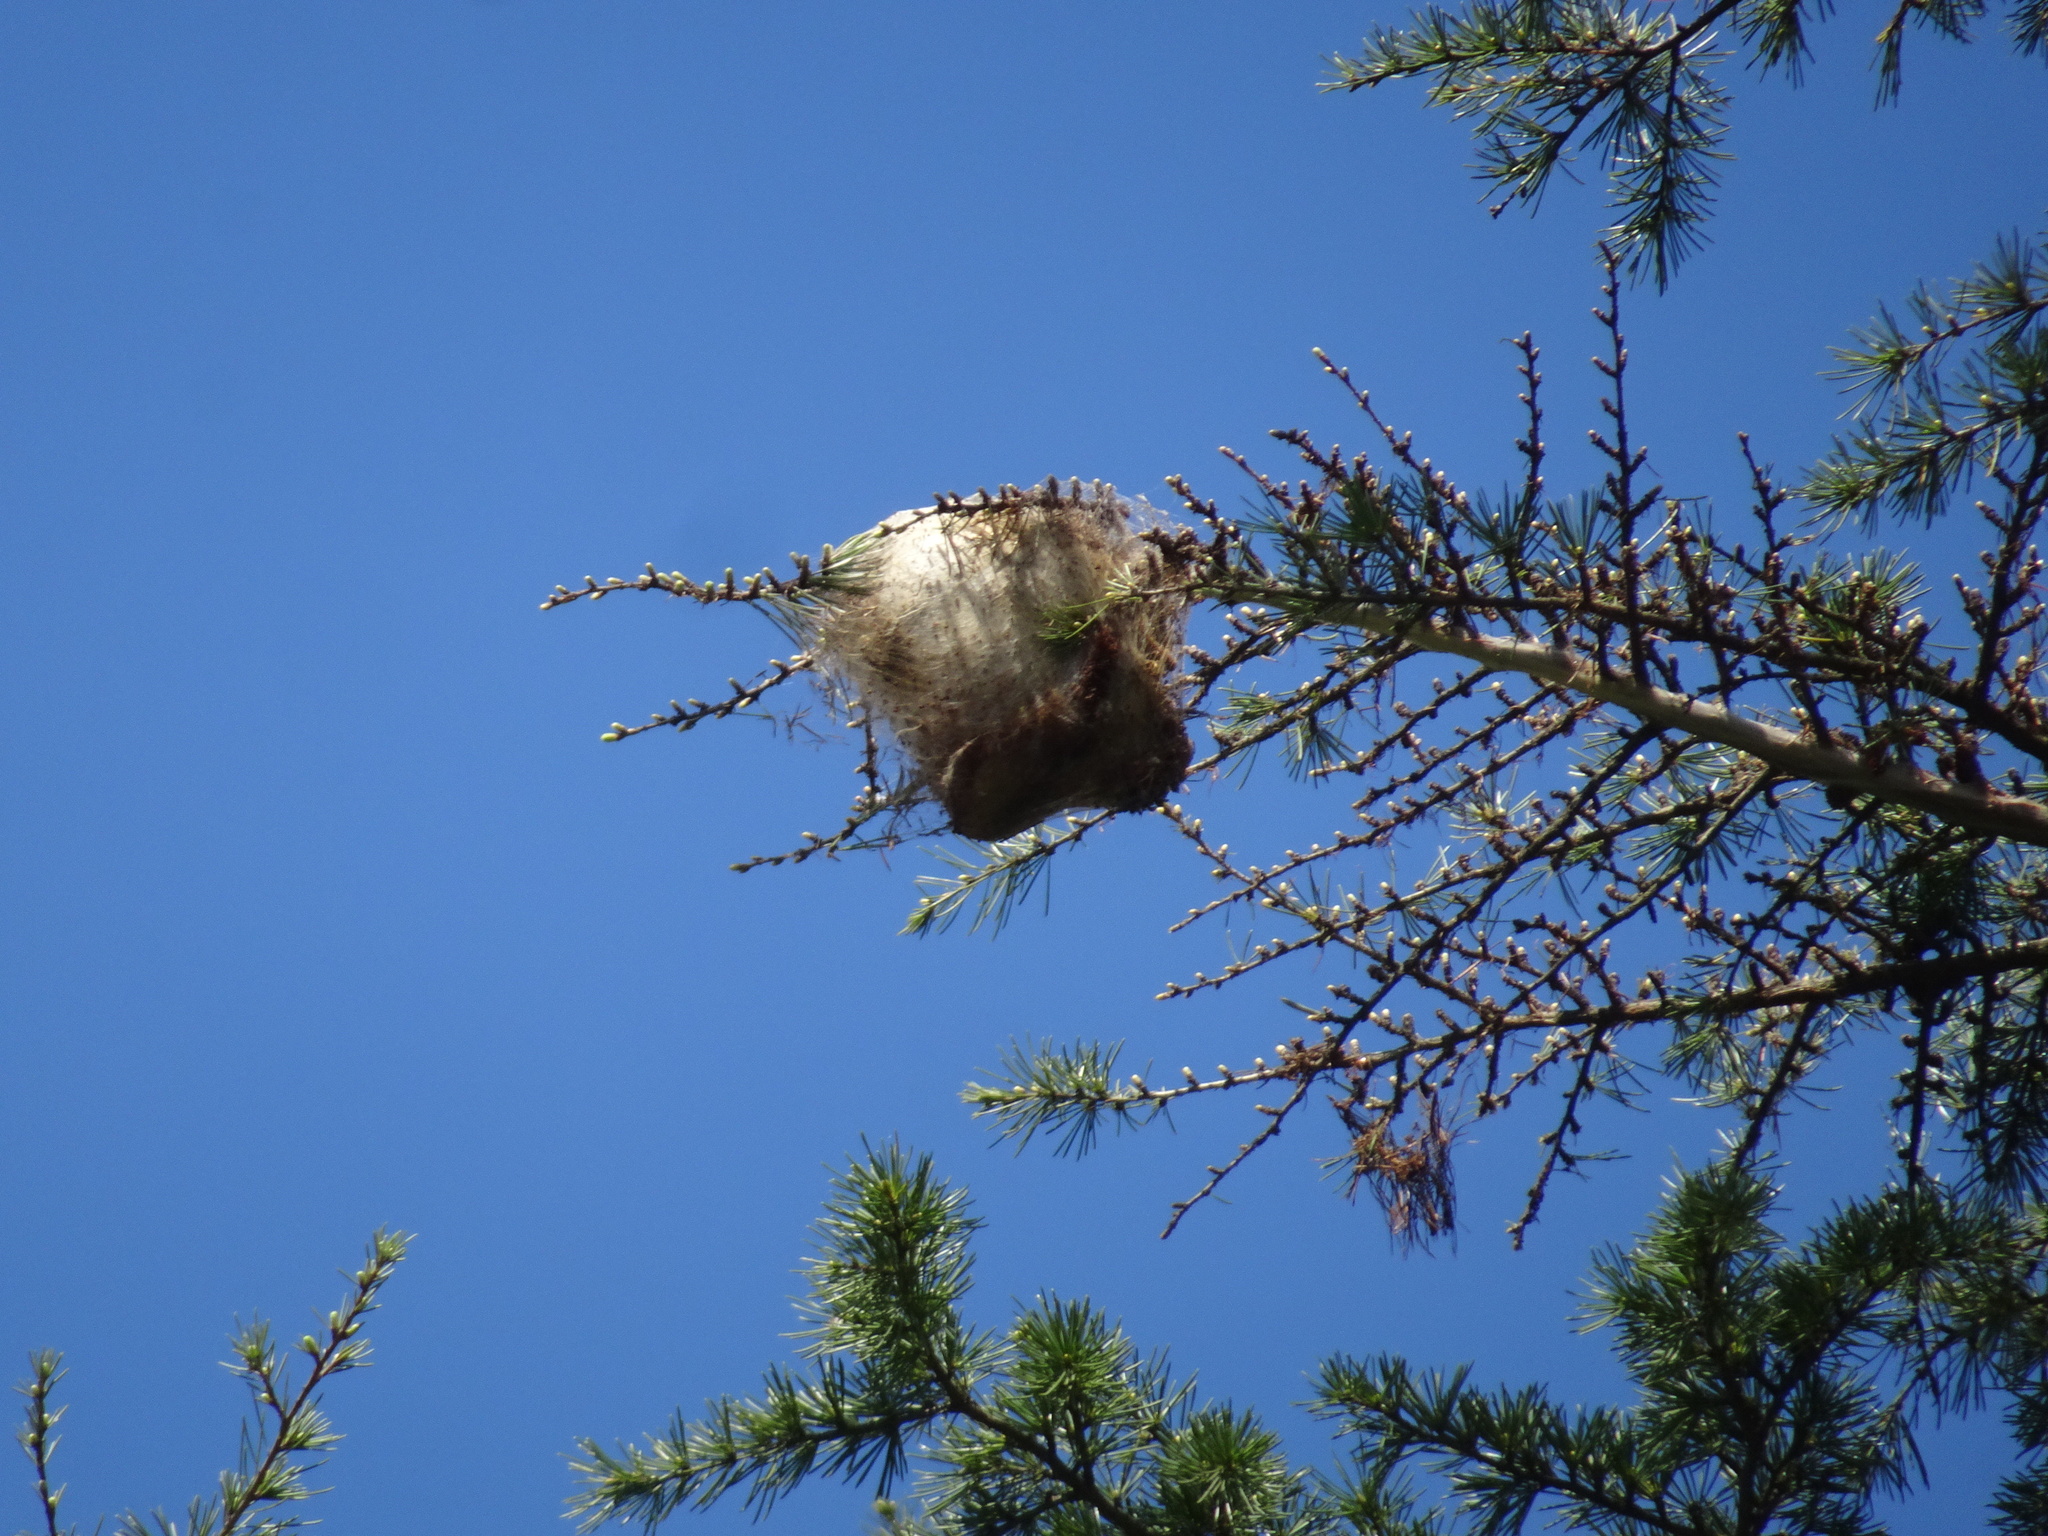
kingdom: Animalia
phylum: Arthropoda
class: Insecta
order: Lepidoptera
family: Notodontidae
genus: Thaumetopoea
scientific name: Thaumetopoea pityocampa
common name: Pine processionary
